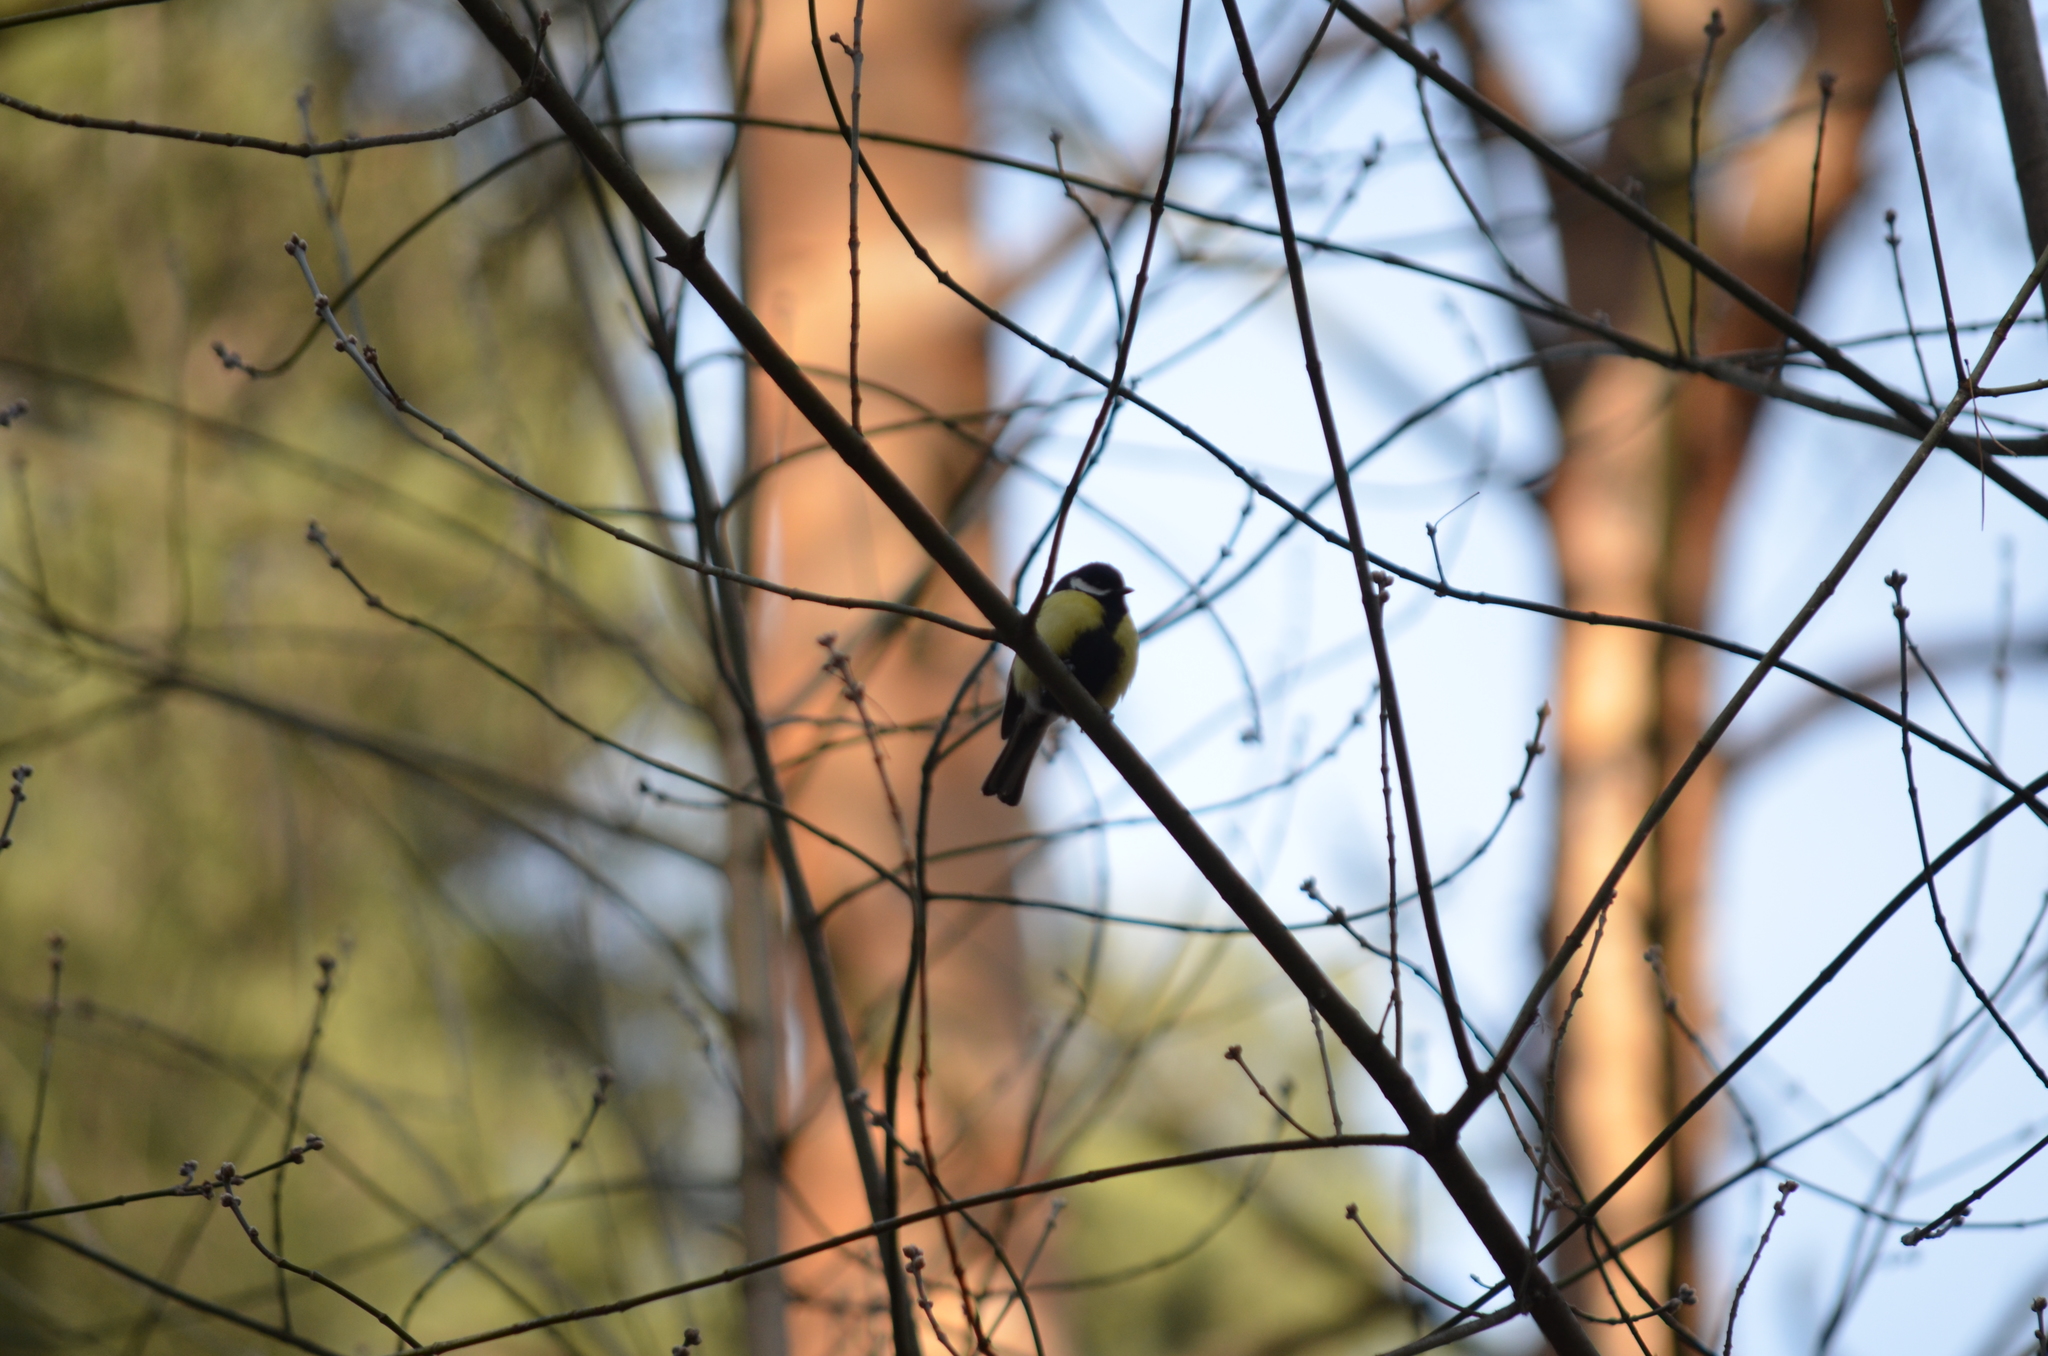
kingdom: Animalia
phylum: Chordata
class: Aves
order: Passeriformes
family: Paridae
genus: Parus
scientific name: Parus major
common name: Great tit
